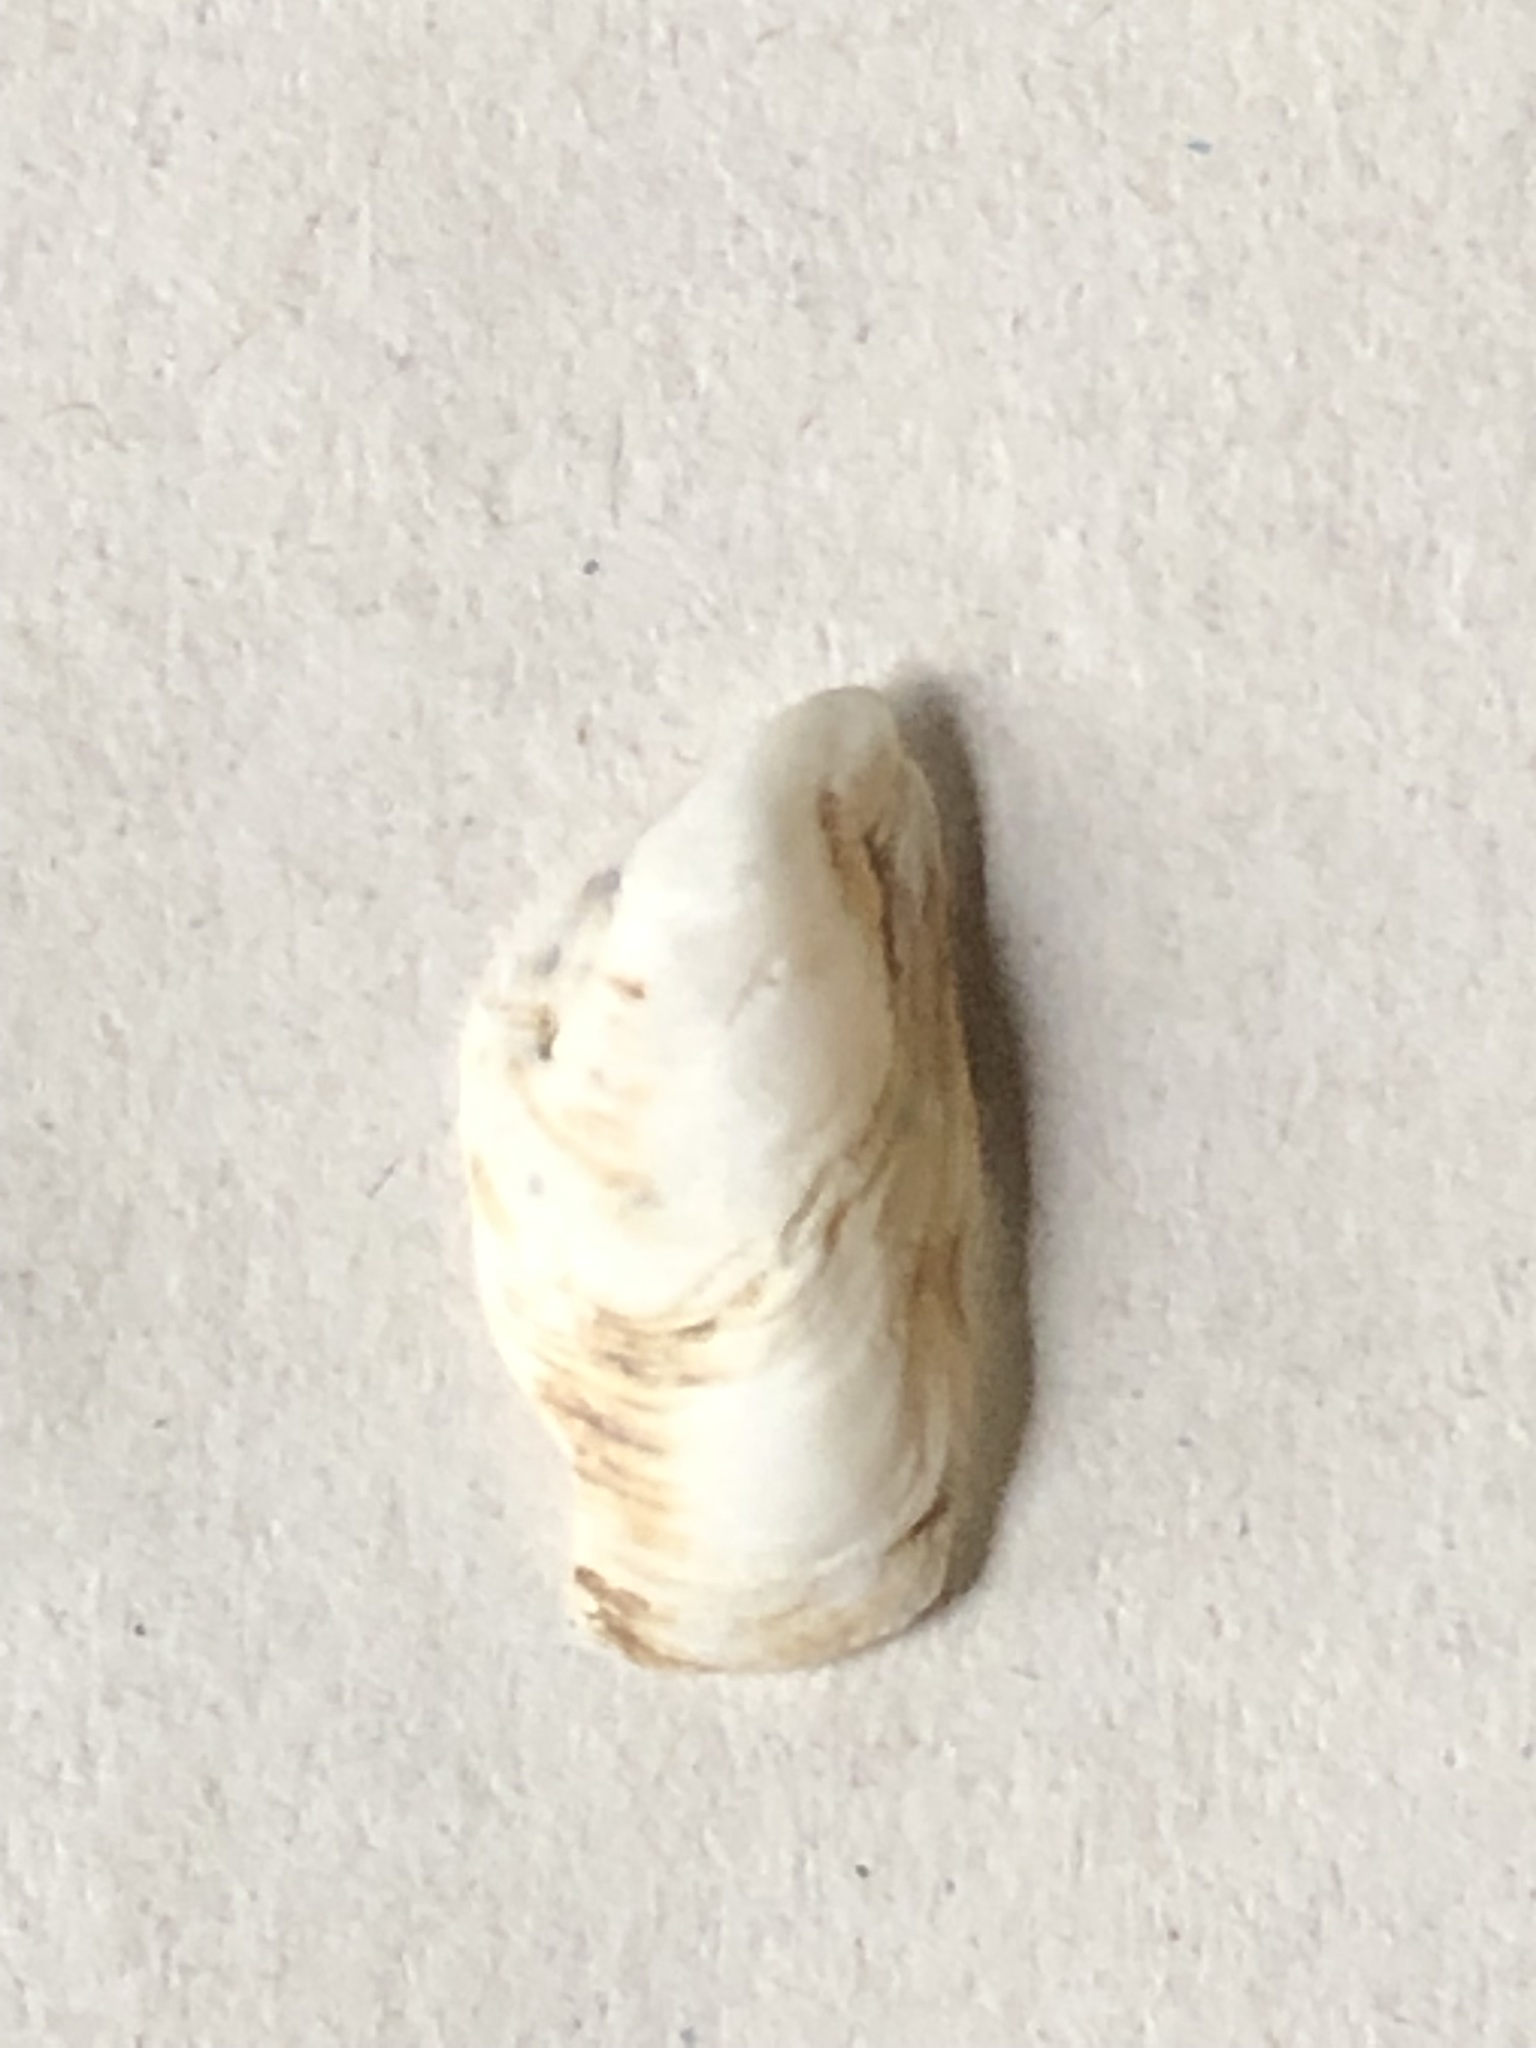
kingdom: Animalia
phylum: Mollusca
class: Bivalvia
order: Myida
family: Dreissenidae
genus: Dreissena
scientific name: Dreissena bugensis
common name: Quagga mussel
